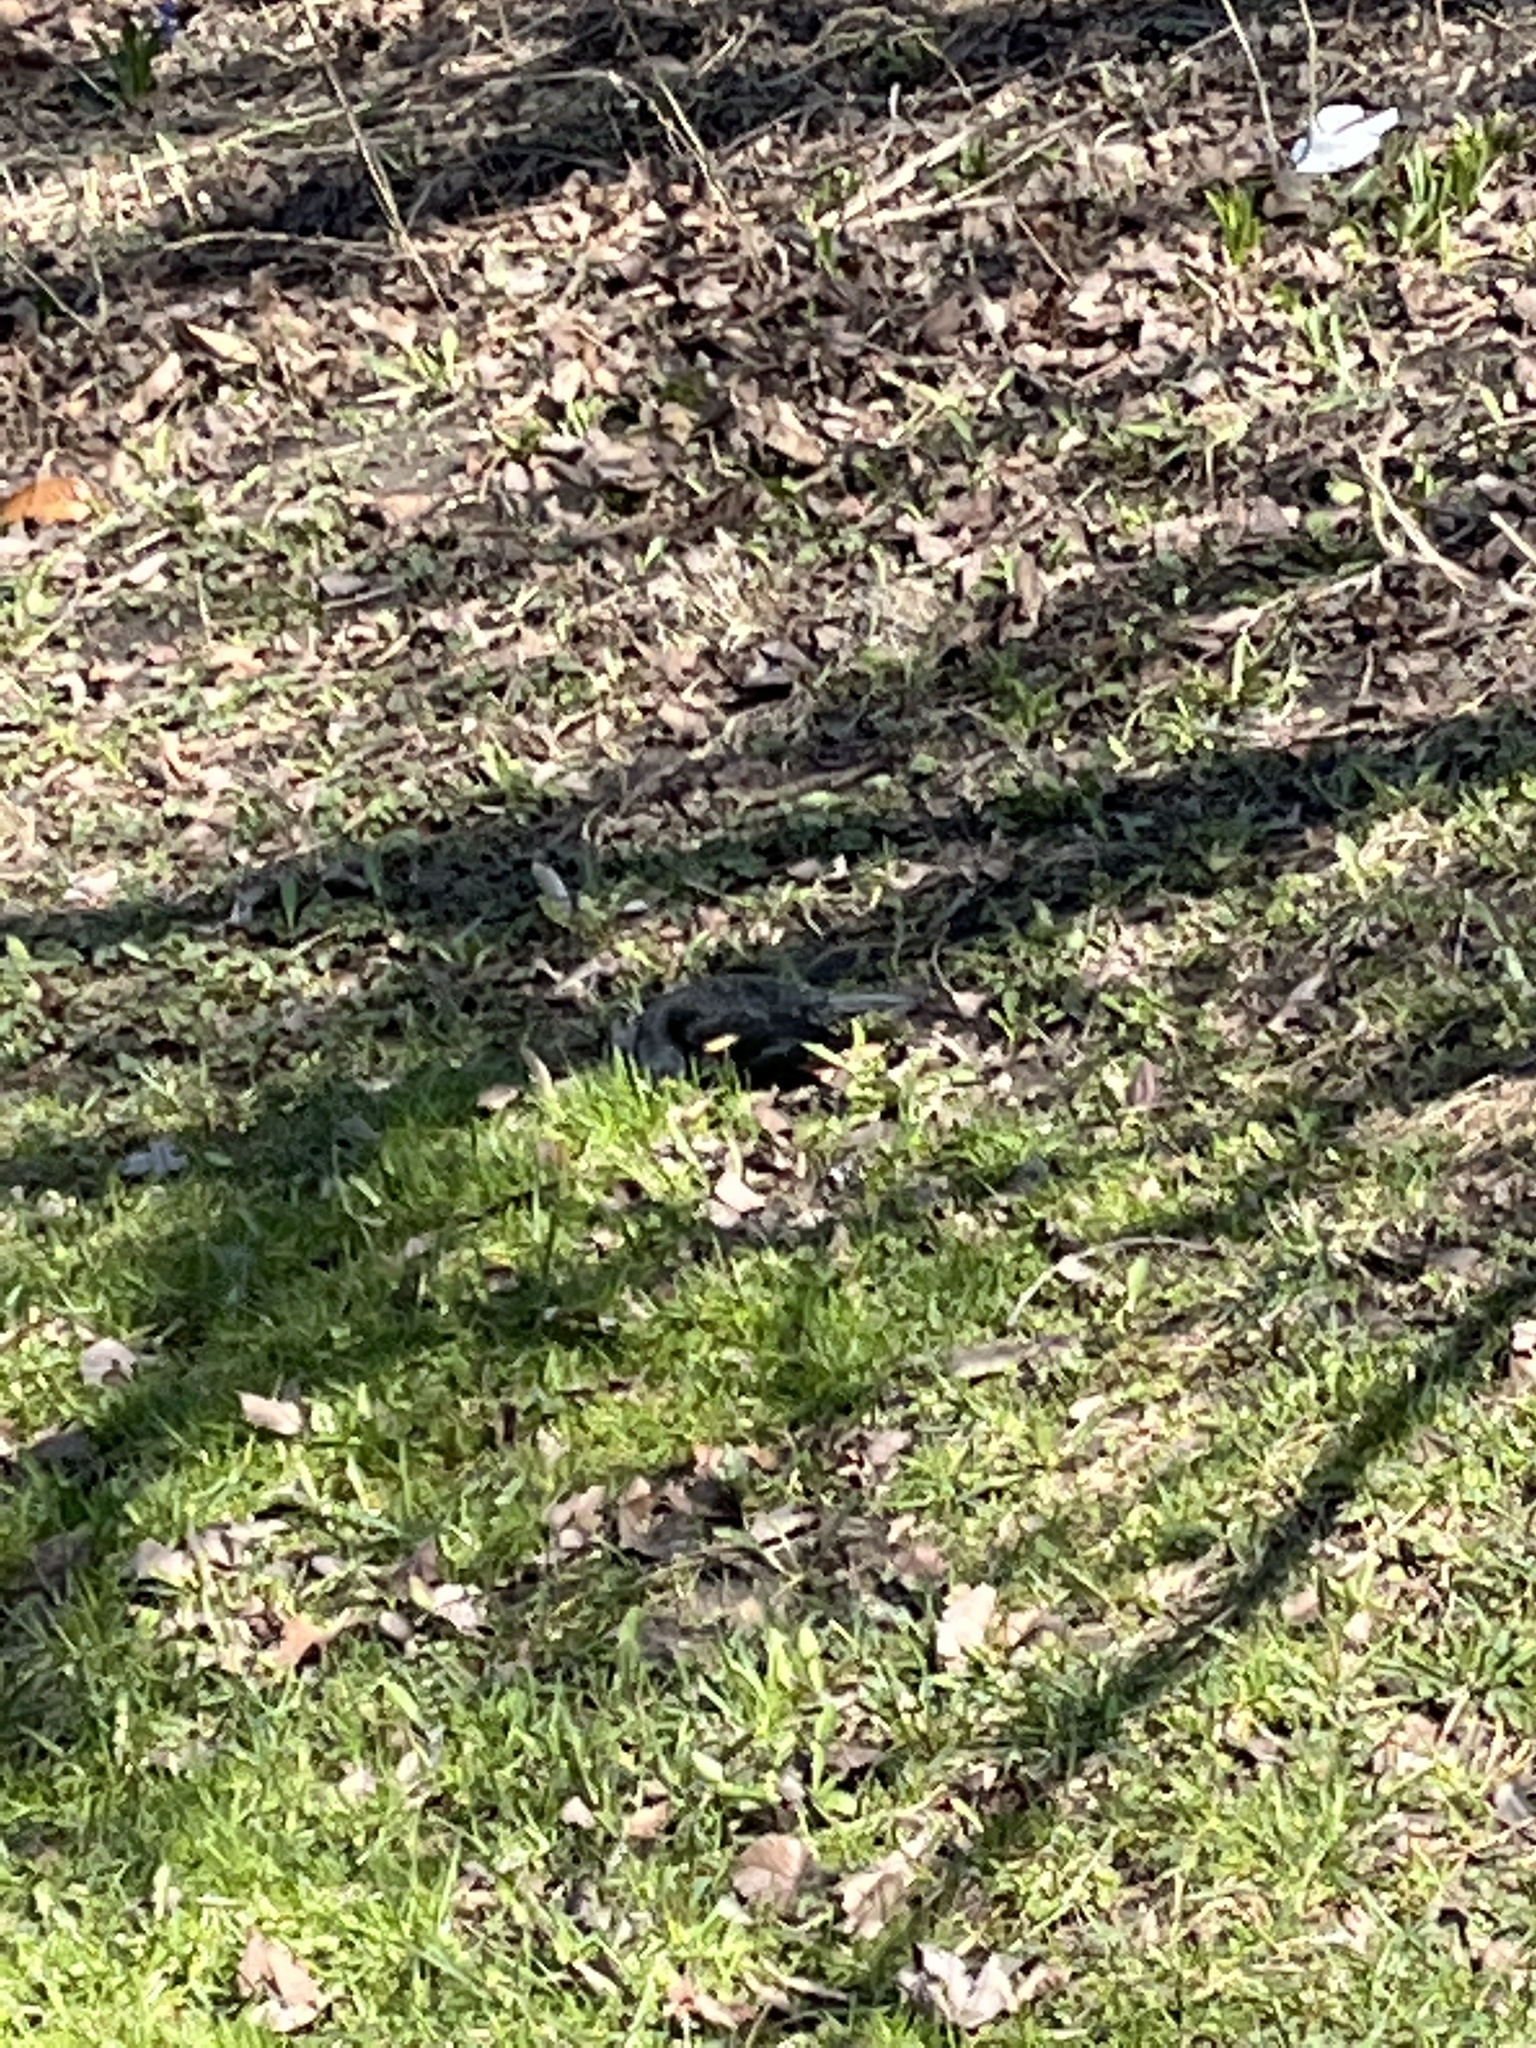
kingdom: Animalia
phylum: Chordata
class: Aves
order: Passeriformes
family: Icteridae
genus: Agelaius
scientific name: Agelaius phoeniceus
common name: Red-winged blackbird
